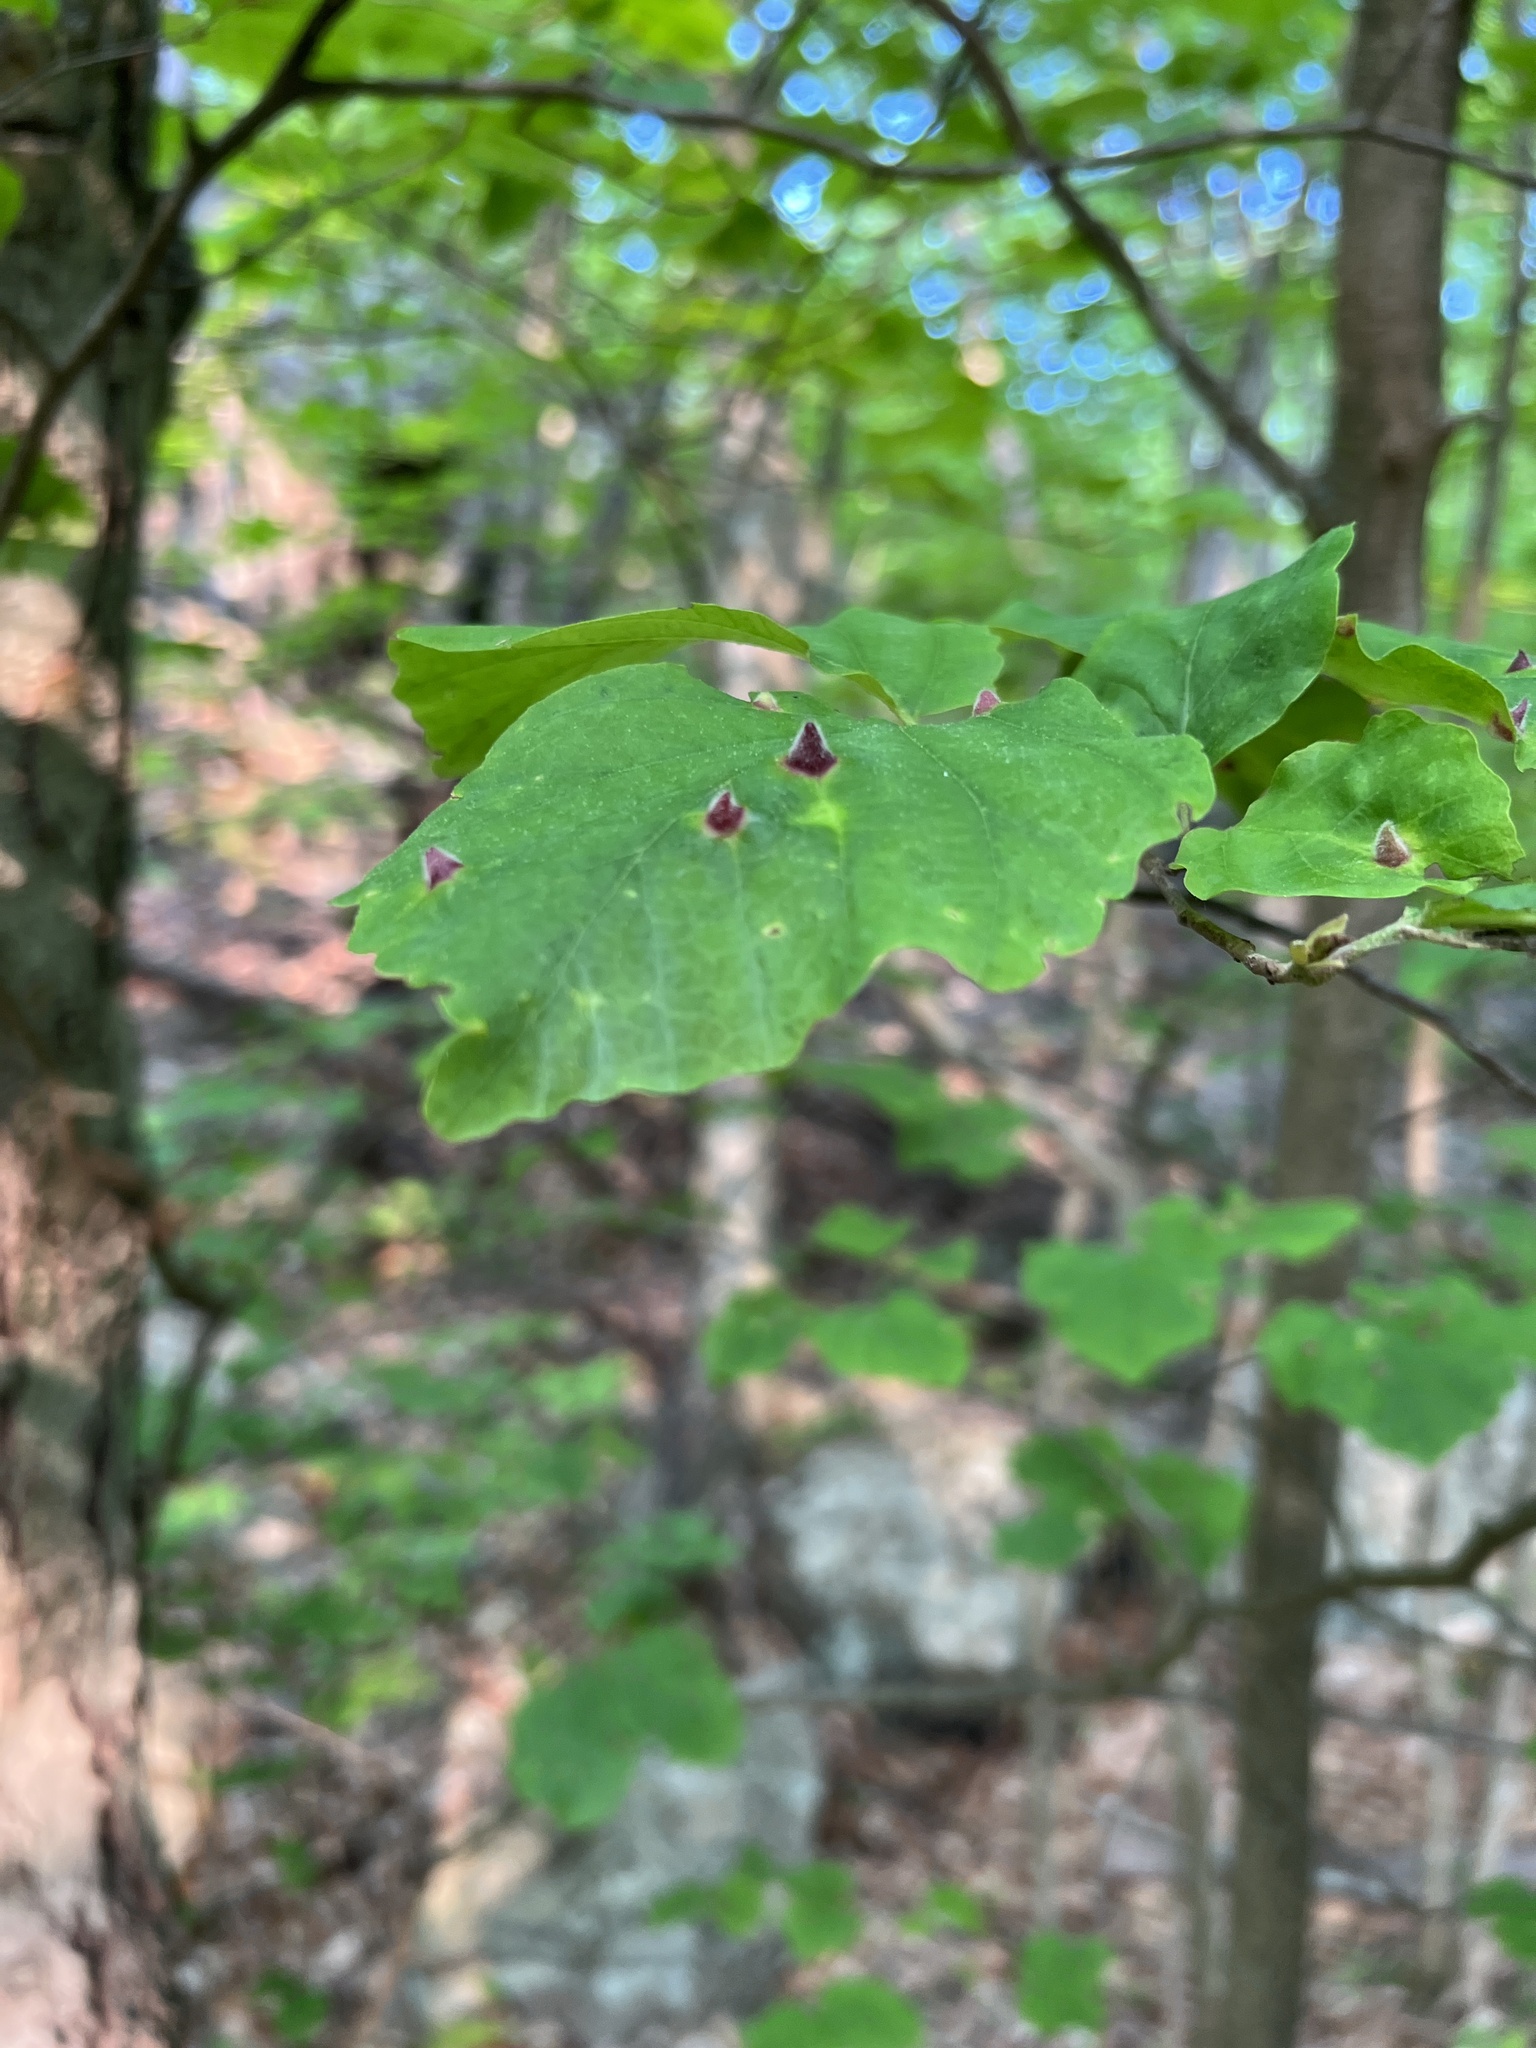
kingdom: Animalia
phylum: Arthropoda
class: Insecta
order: Hemiptera
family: Aphididae
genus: Hormaphis
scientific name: Hormaphis hamamelidis
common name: Witch-hazel cone gall aphid
